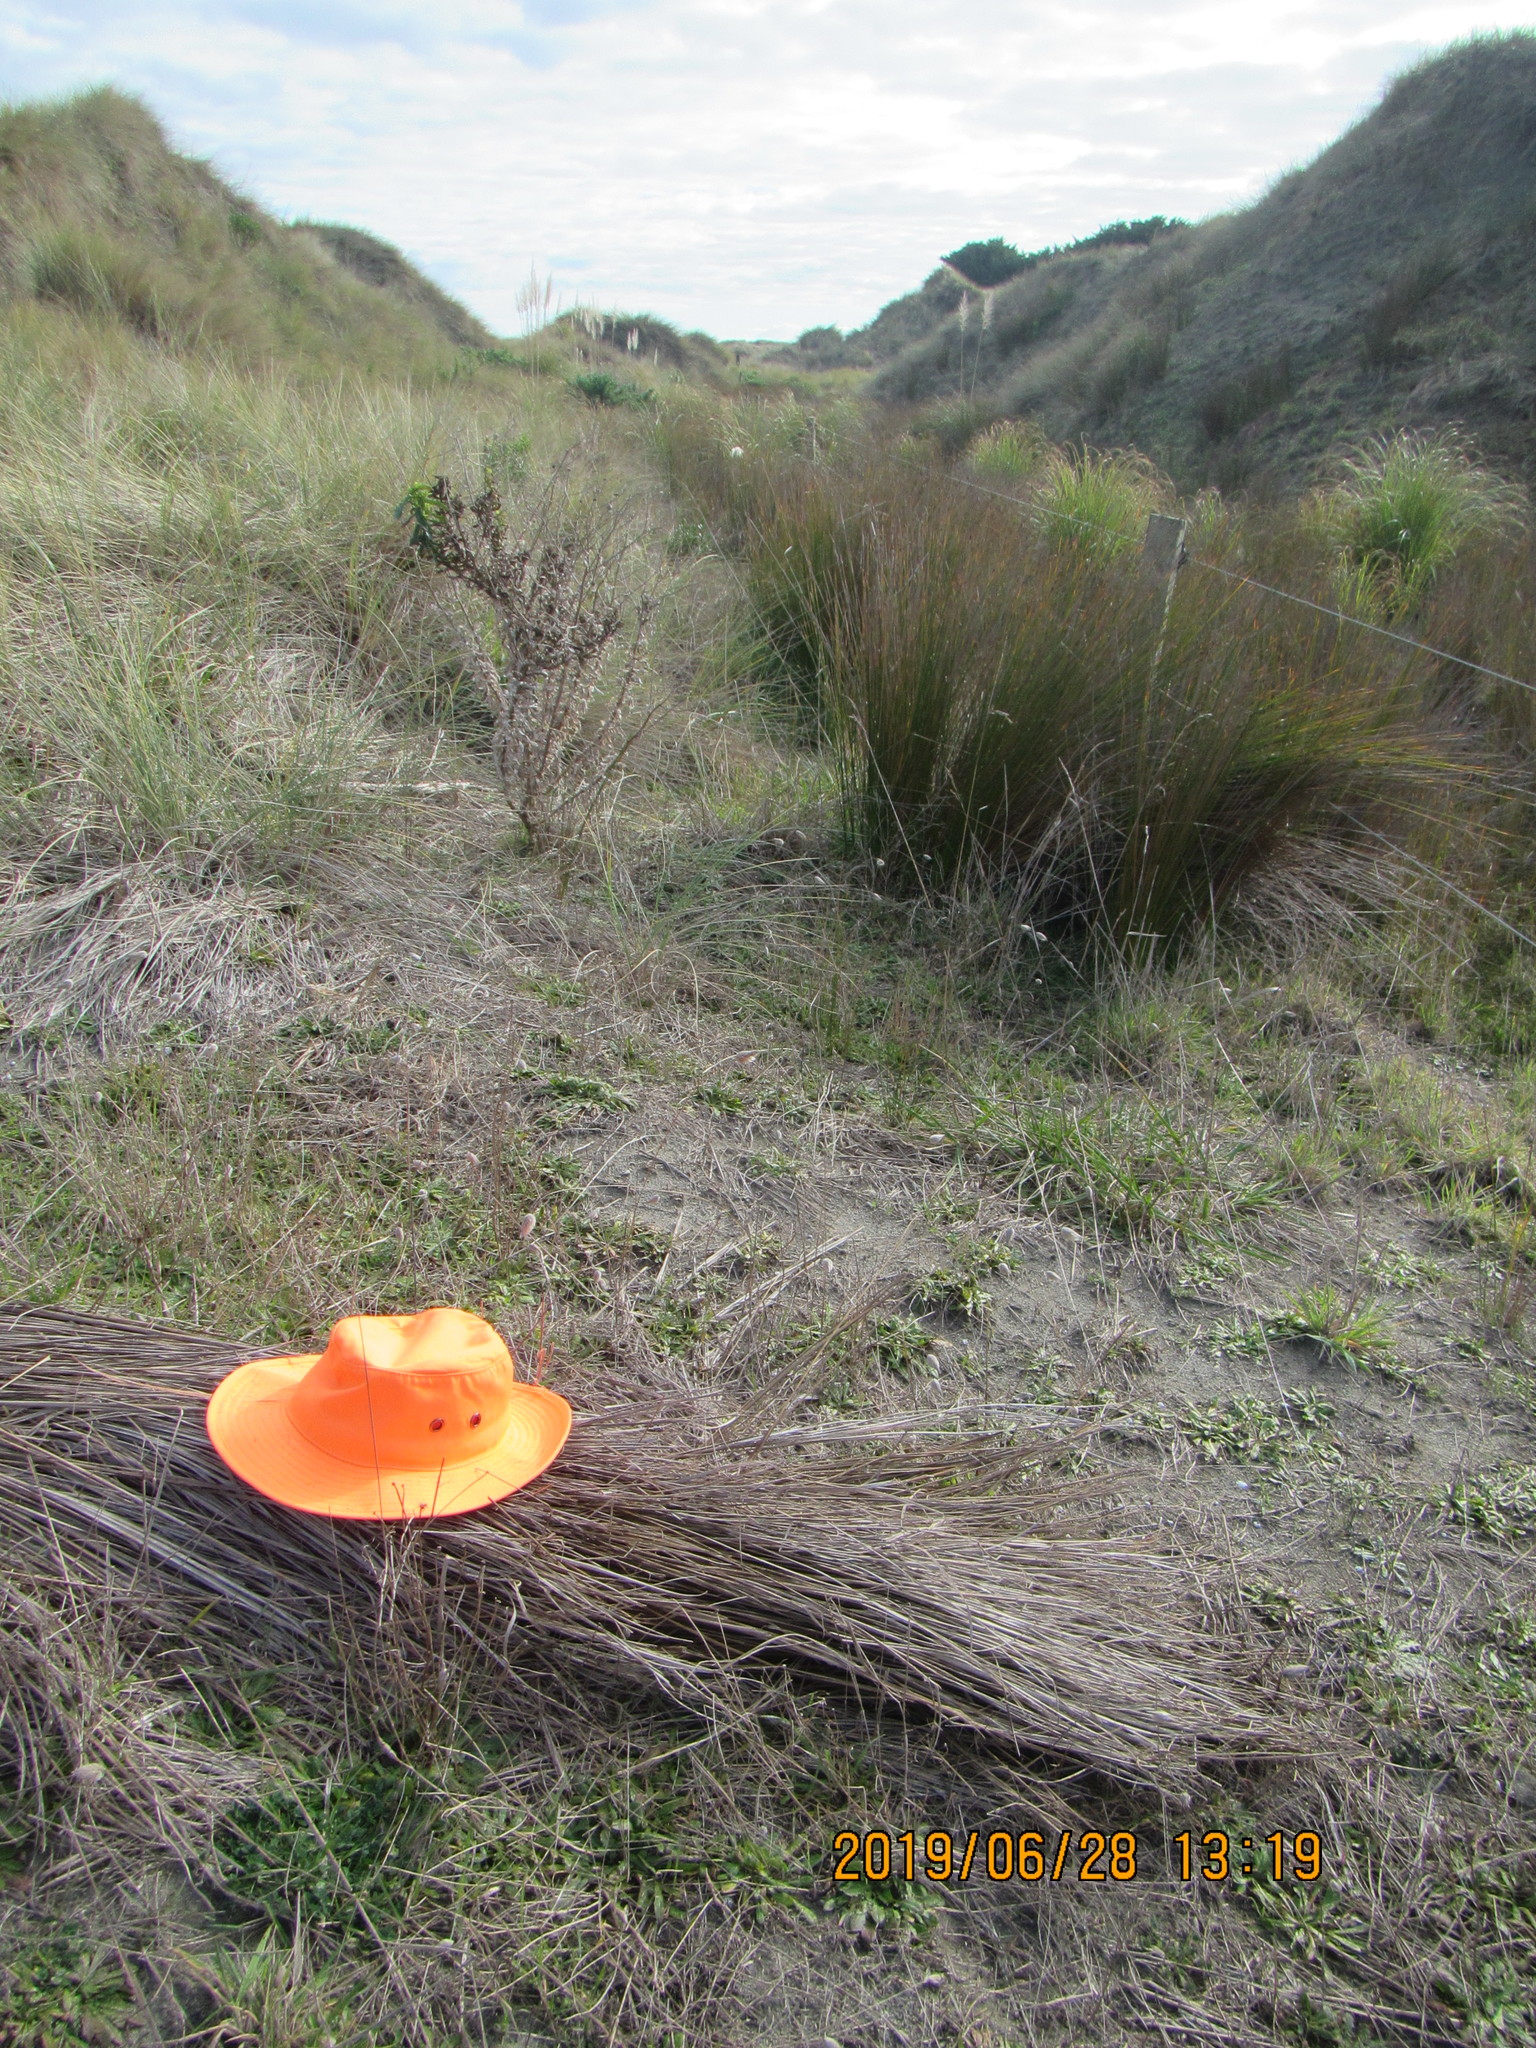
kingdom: Animalia
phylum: Arthropoda
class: Malacostraca
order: Isopoda
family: Porcellionidae
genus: Porcellio
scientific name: Porcellio scaber
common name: Common rough woodlouse
